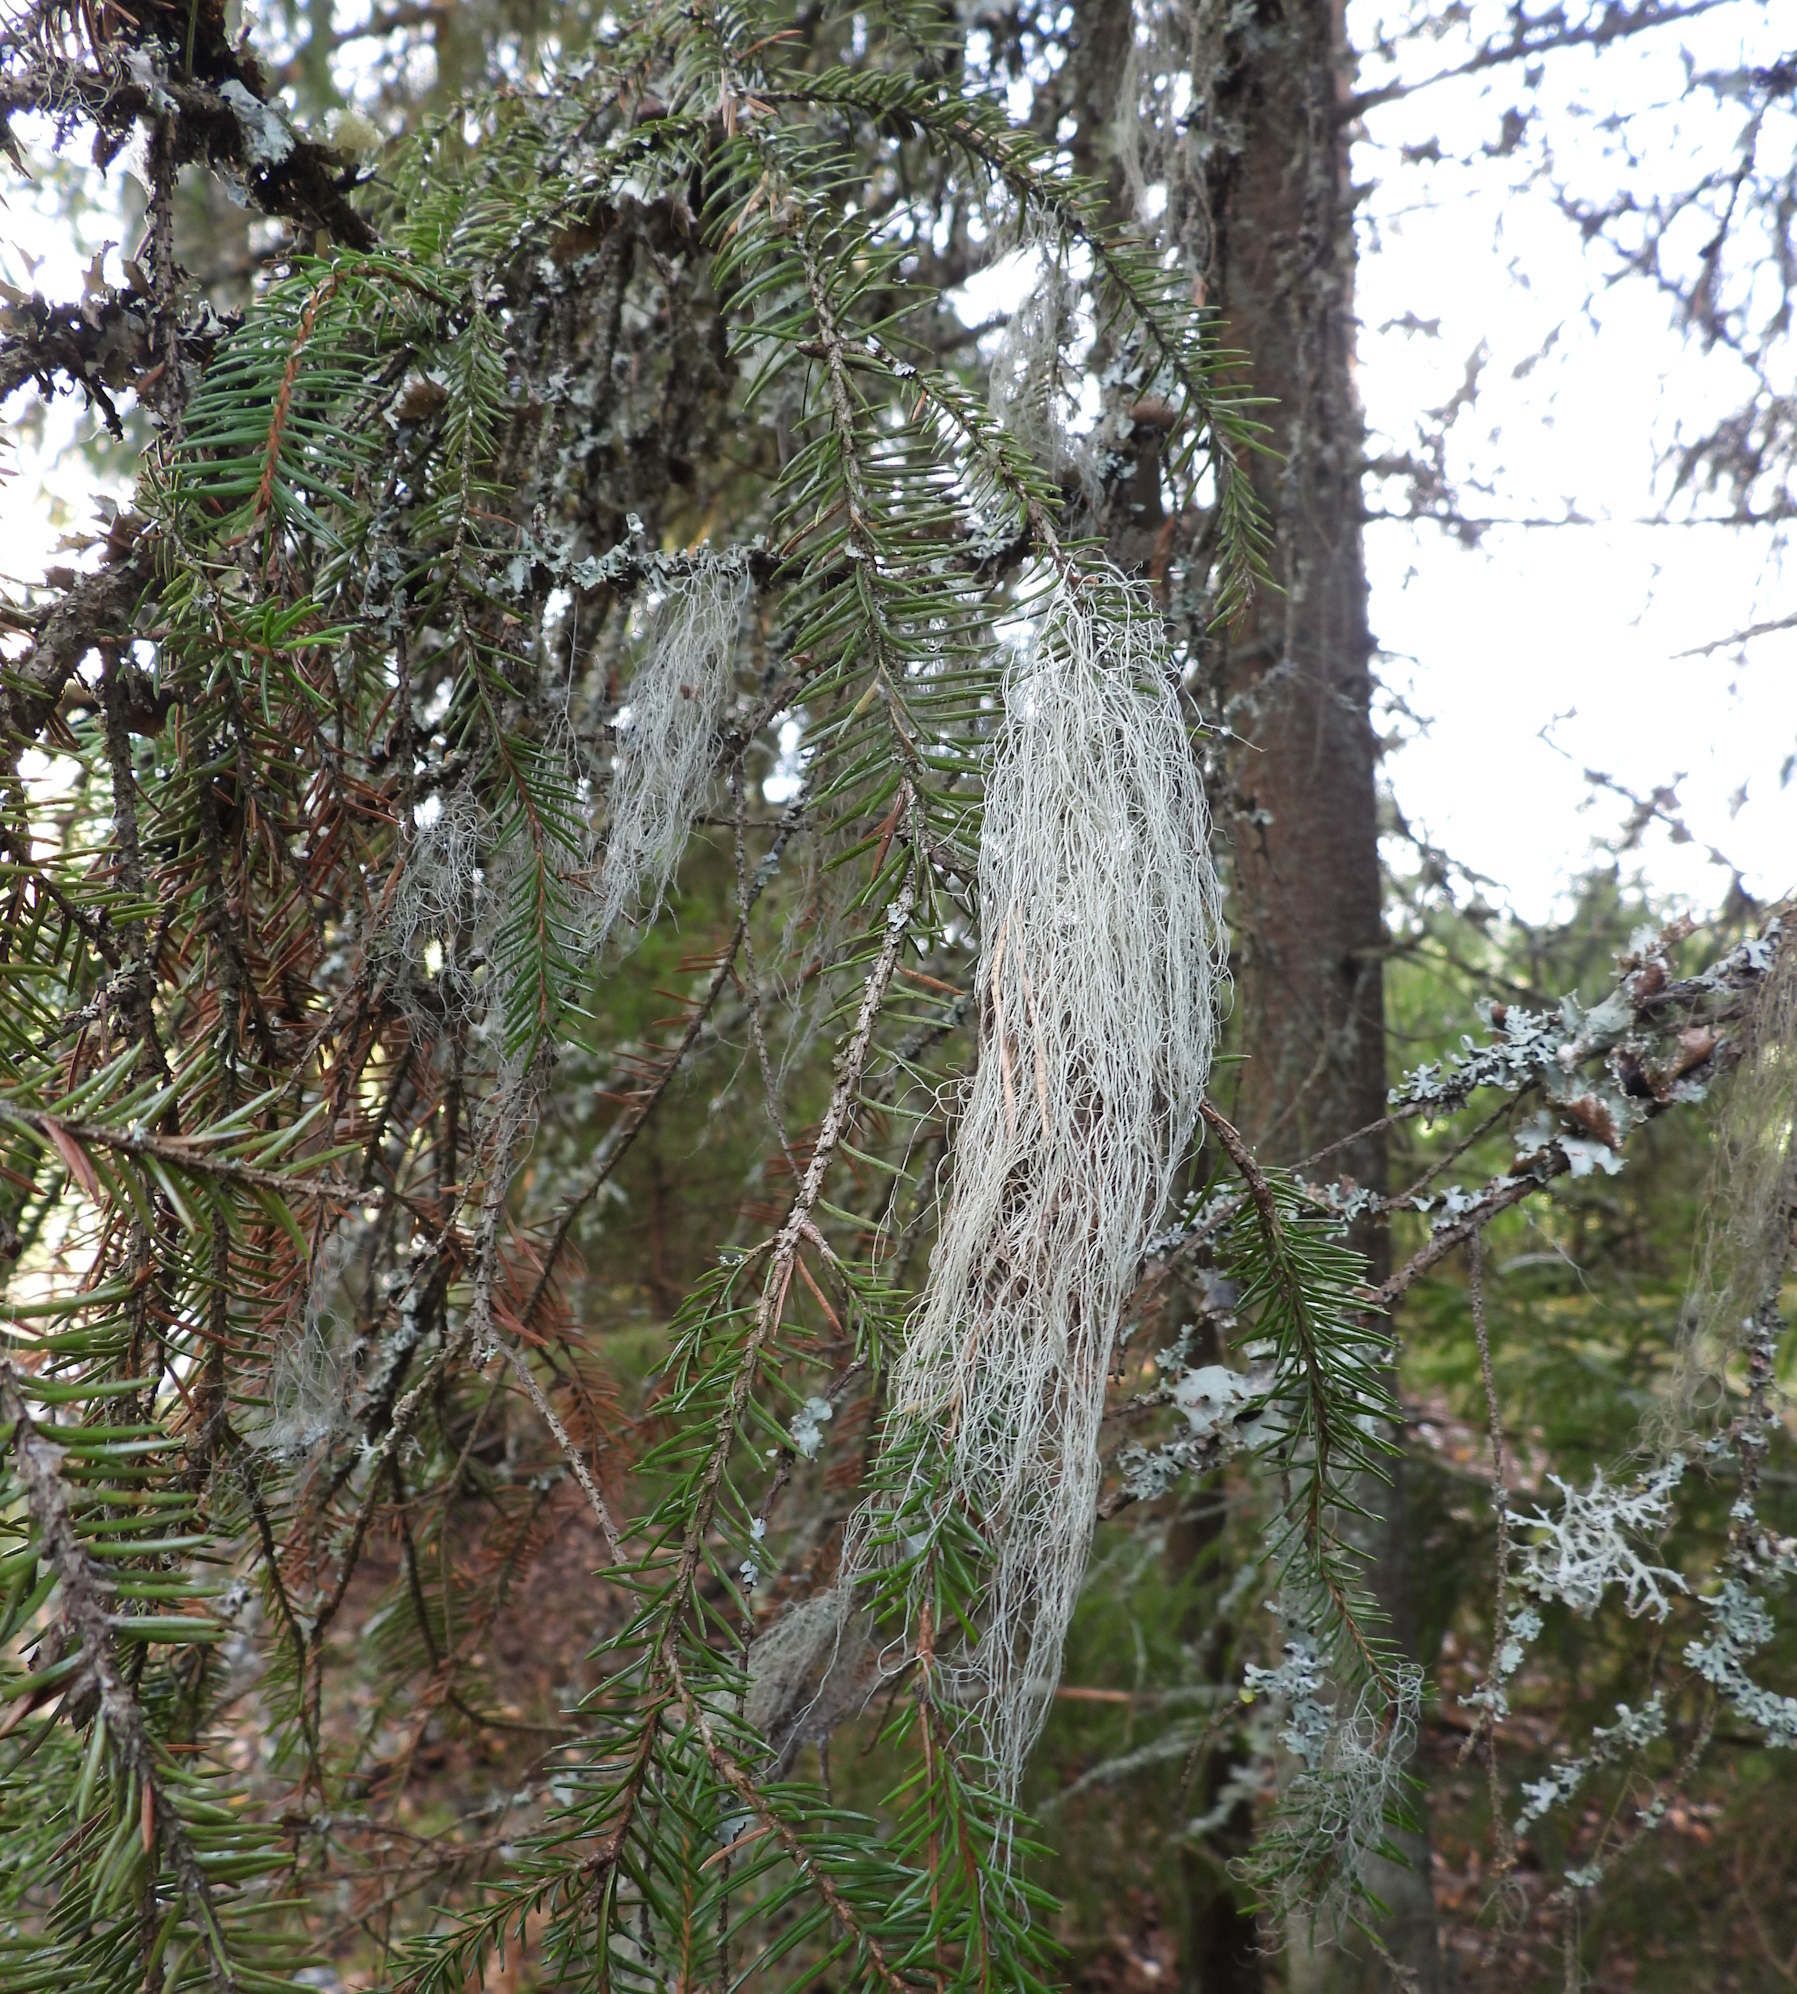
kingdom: Fungi
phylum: Ascomycota
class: Lecanoromycetes
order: Lecanorales
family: Parmeliaceae
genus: Bryoria
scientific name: Bryoria fuscescens
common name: Pale-footed horsehair lichen
